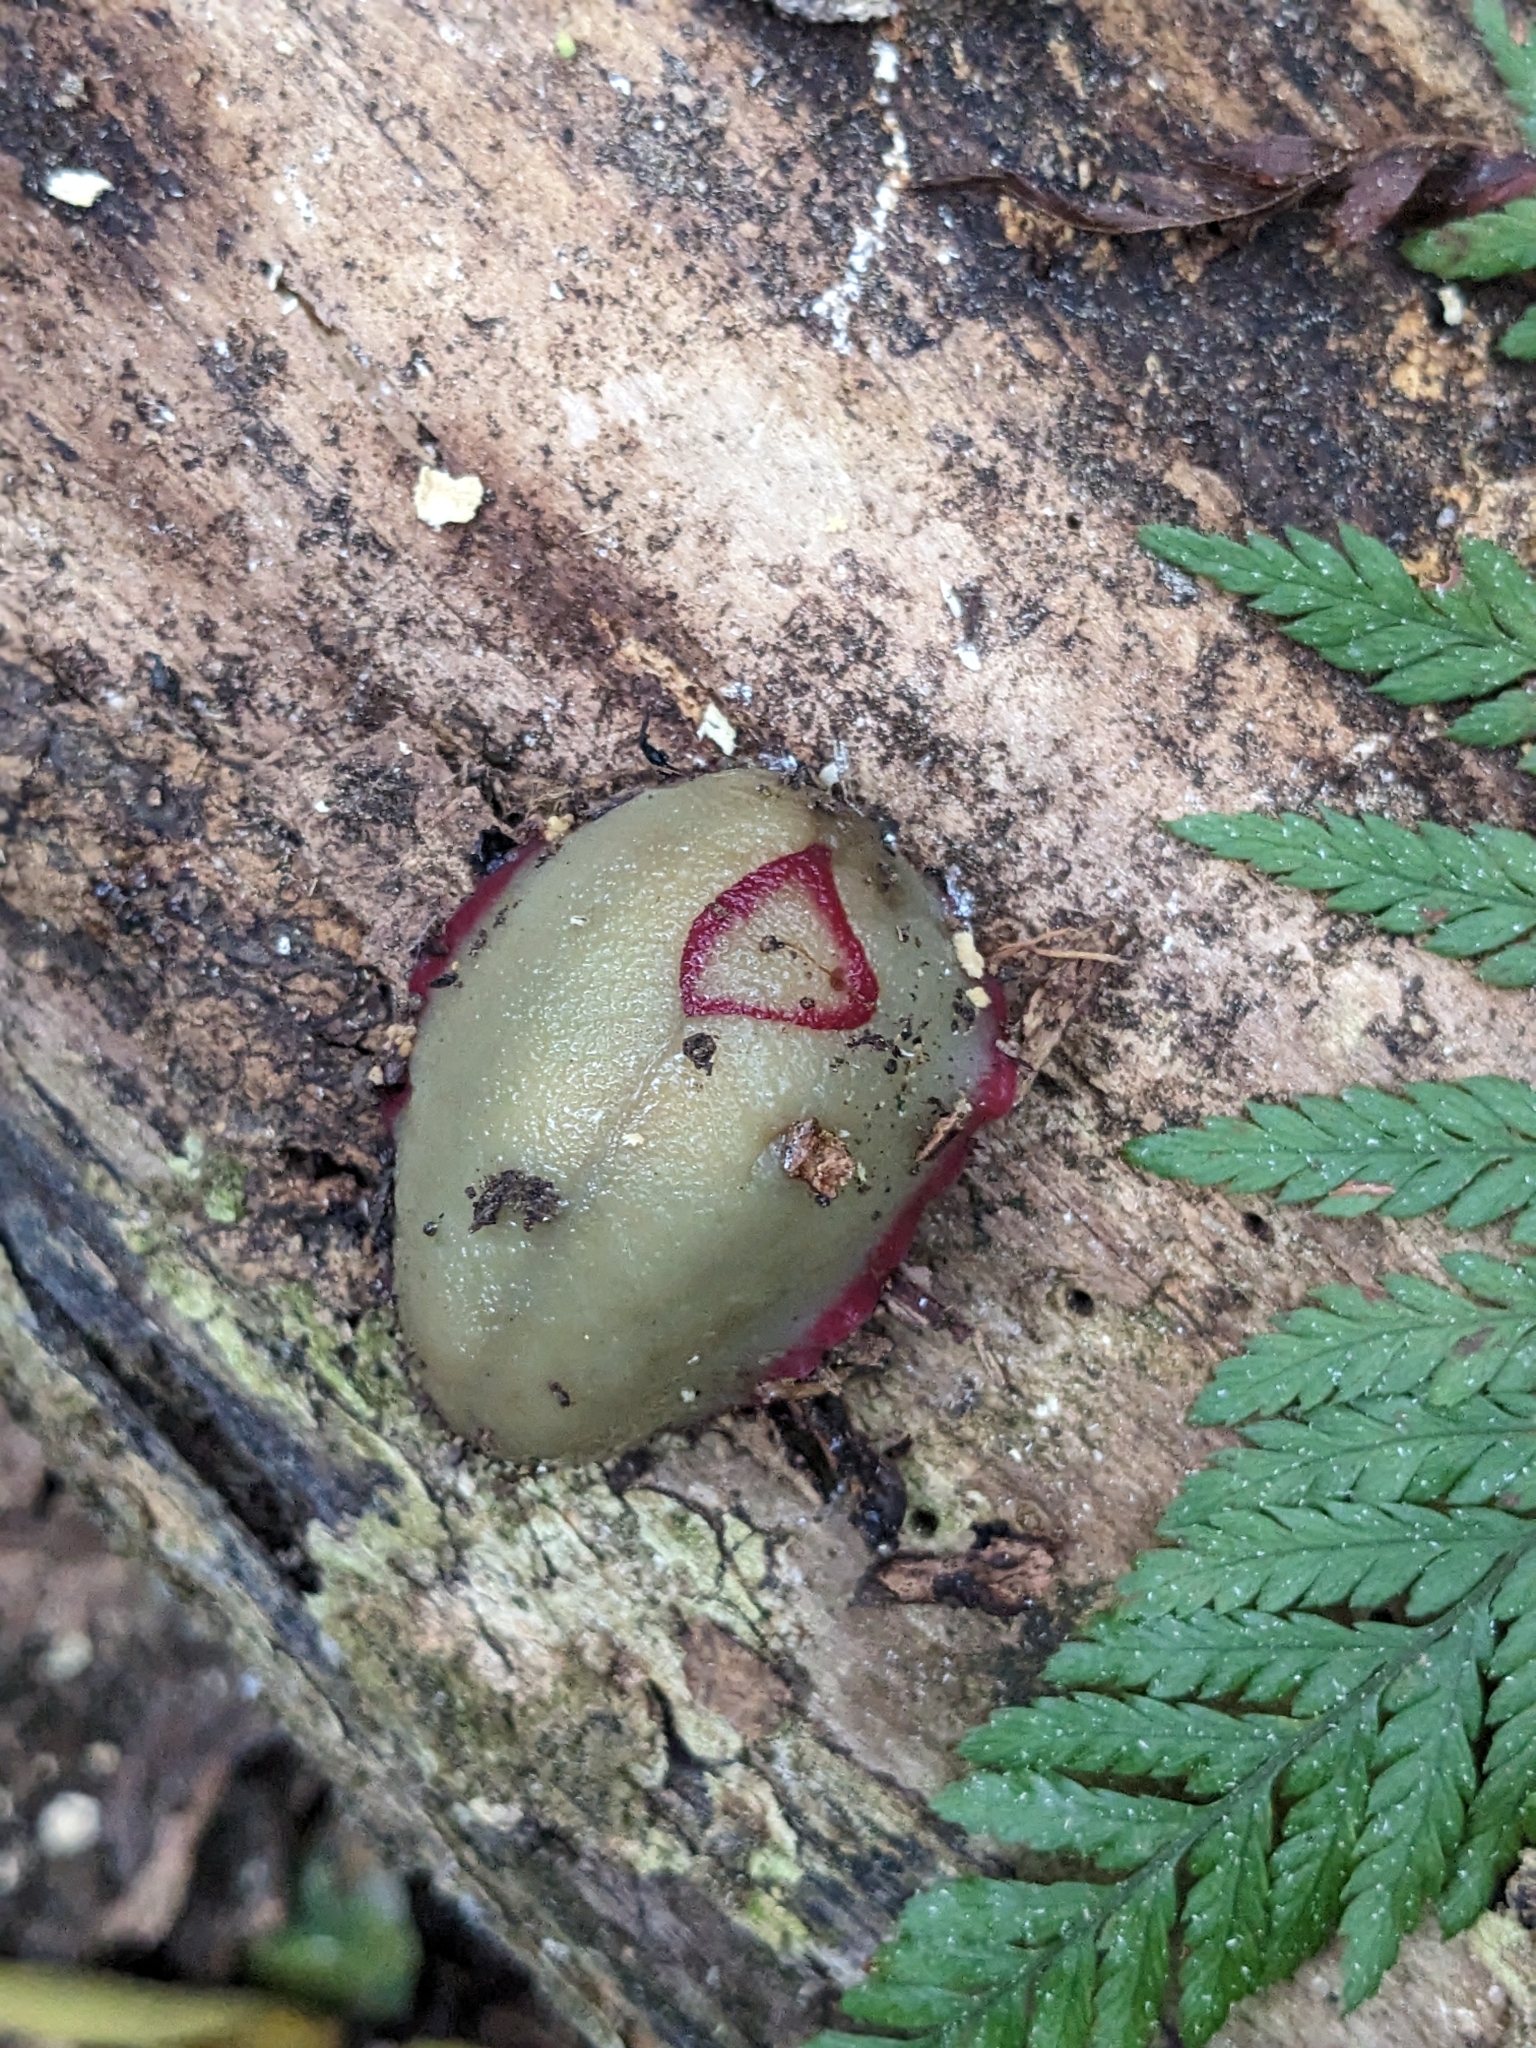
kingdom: Animalia
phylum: Mollusca
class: Gastropoda
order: Stylommatophora
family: Athoracophoridae
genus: Triboniophorus
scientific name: Triboniophorus graeffei
